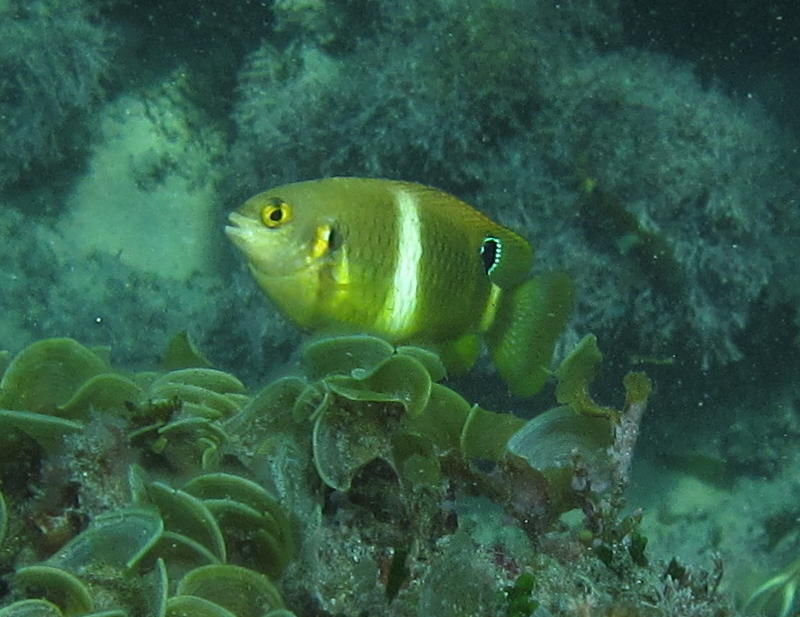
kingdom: Animalia
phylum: Chordata
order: Perciformes
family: Pomacentridae
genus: Plectroglyphidodon
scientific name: Plectroglyphidodon leucozonus
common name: White-band damsel
